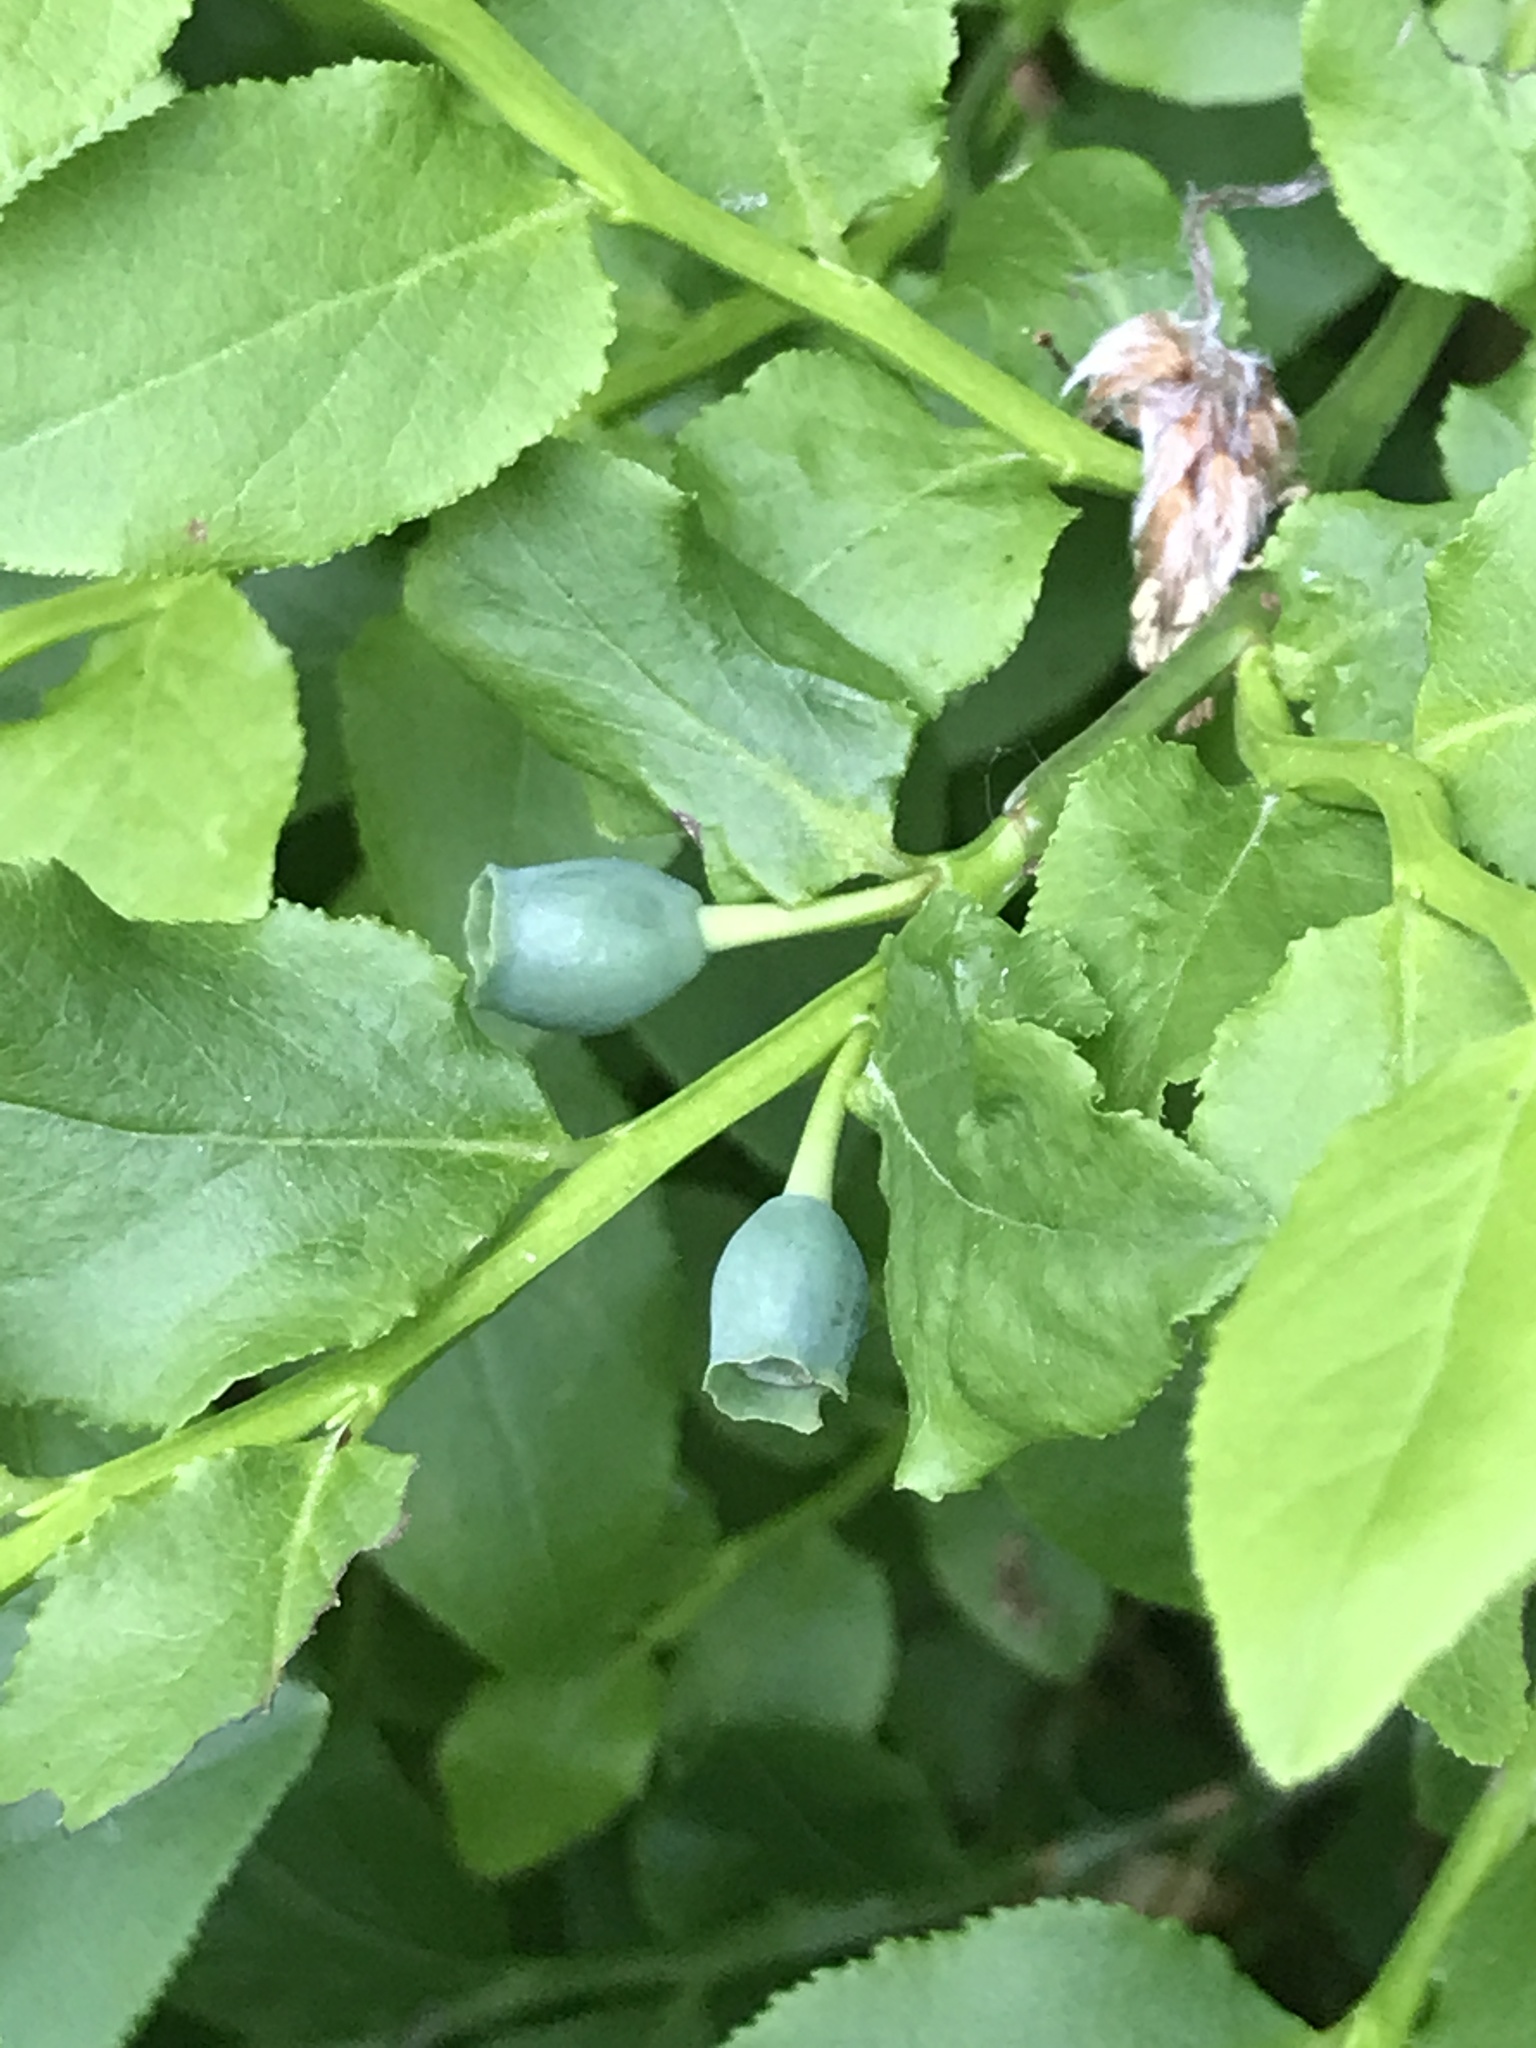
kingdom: Plantae
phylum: Tracheophyta
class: Magnoliopsida
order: Ericales
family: Ericaceae
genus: Vaccinium
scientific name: Vaccinium myrtillus
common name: Bilberry
